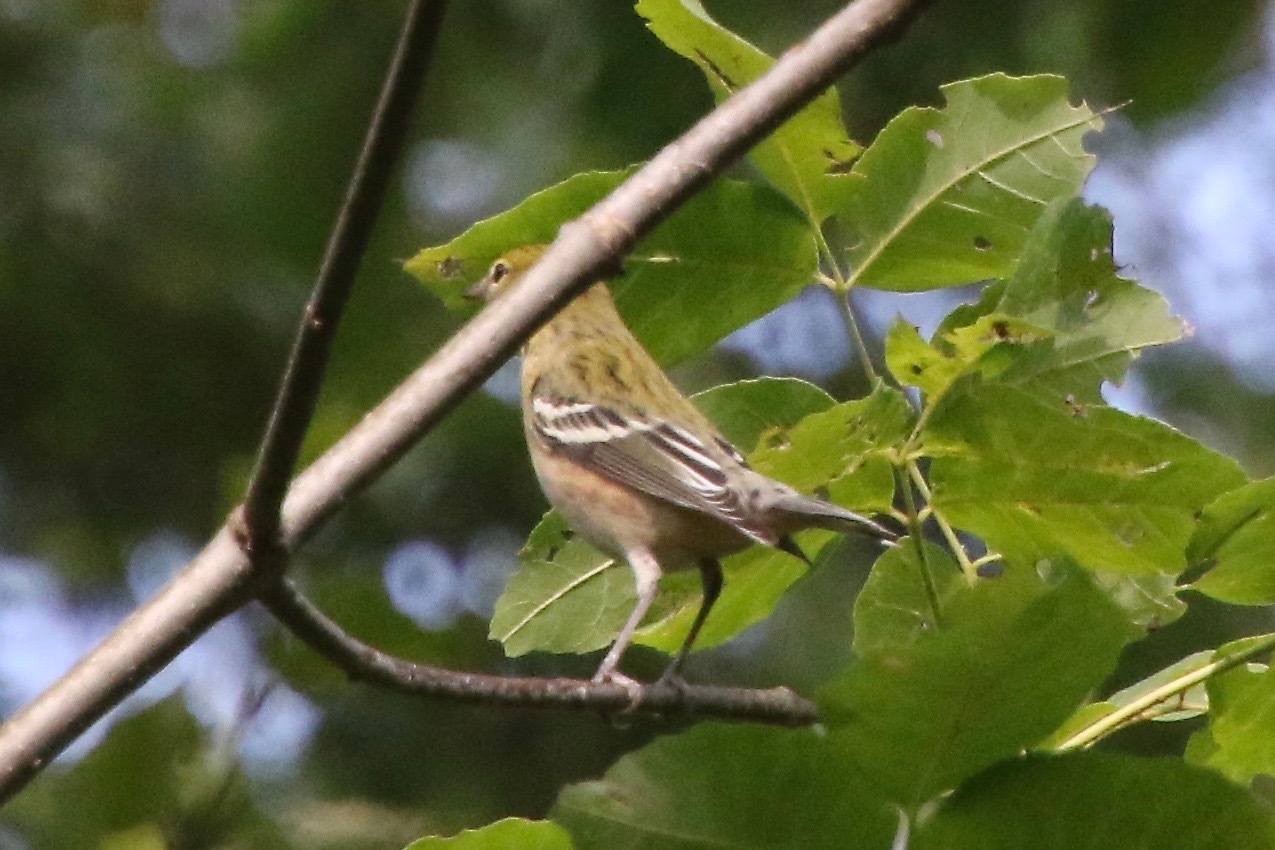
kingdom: Animalia
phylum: Chordata
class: Aves
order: Passeriformes
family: Parulidae
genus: Setophaga
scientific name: Setophaga castanea
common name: Bay-breasted warbler
